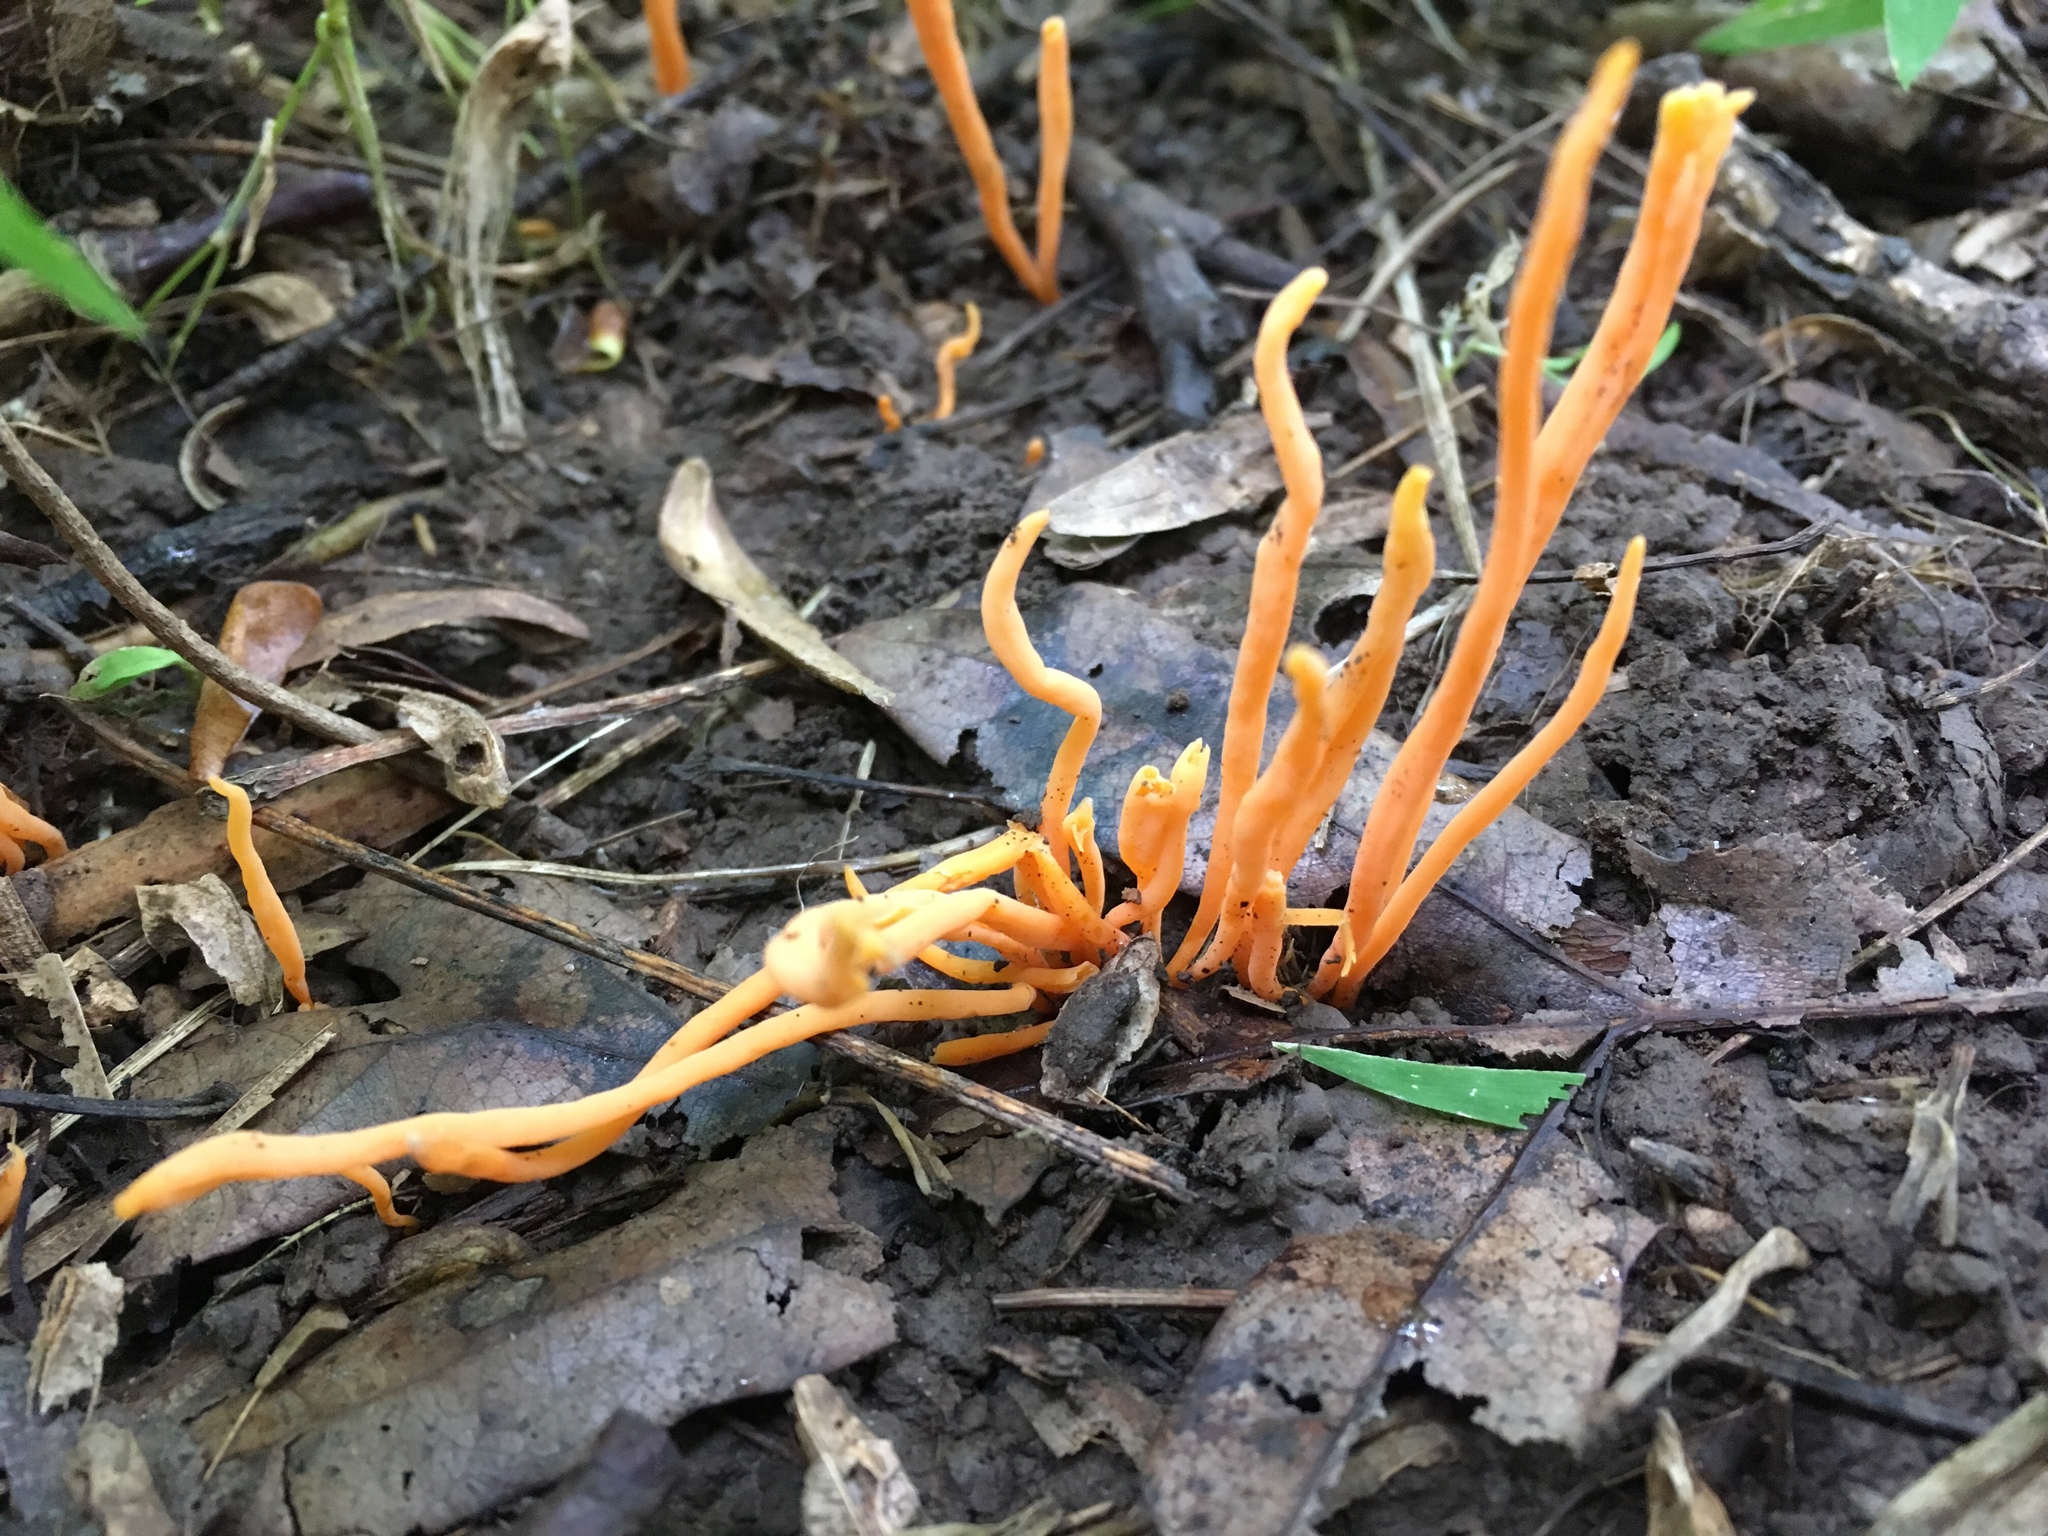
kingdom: Fungi
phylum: Basidiomycota
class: Agaricomycetes
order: Agaricales
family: Clavariaceae
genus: Clavulinopsis
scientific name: Clavulinopsis aurantiocinnabarina
